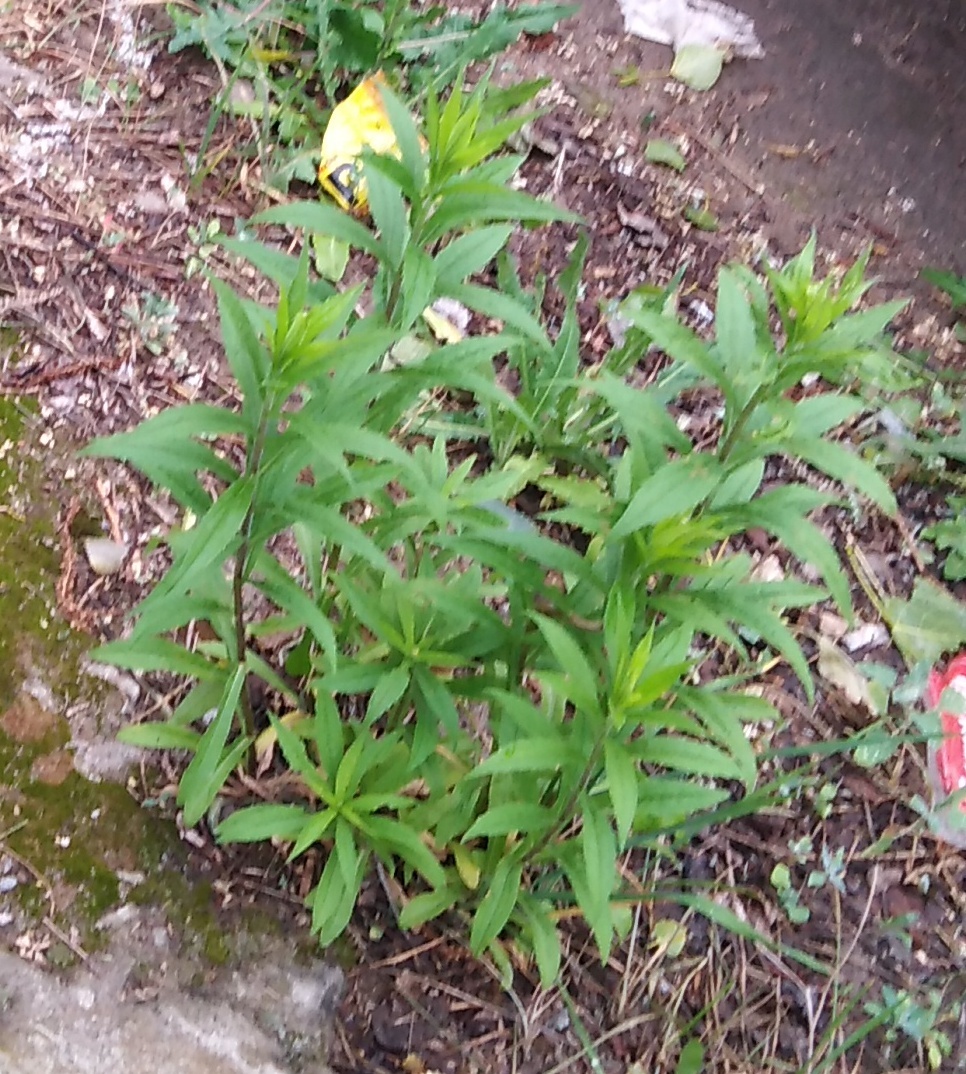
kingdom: Plantae
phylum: Tracheophyta
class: Magnoliopsida
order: Asterales
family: Asteraceae
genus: Solidago
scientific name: Solidago canadensis
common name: Canada goldenrod
